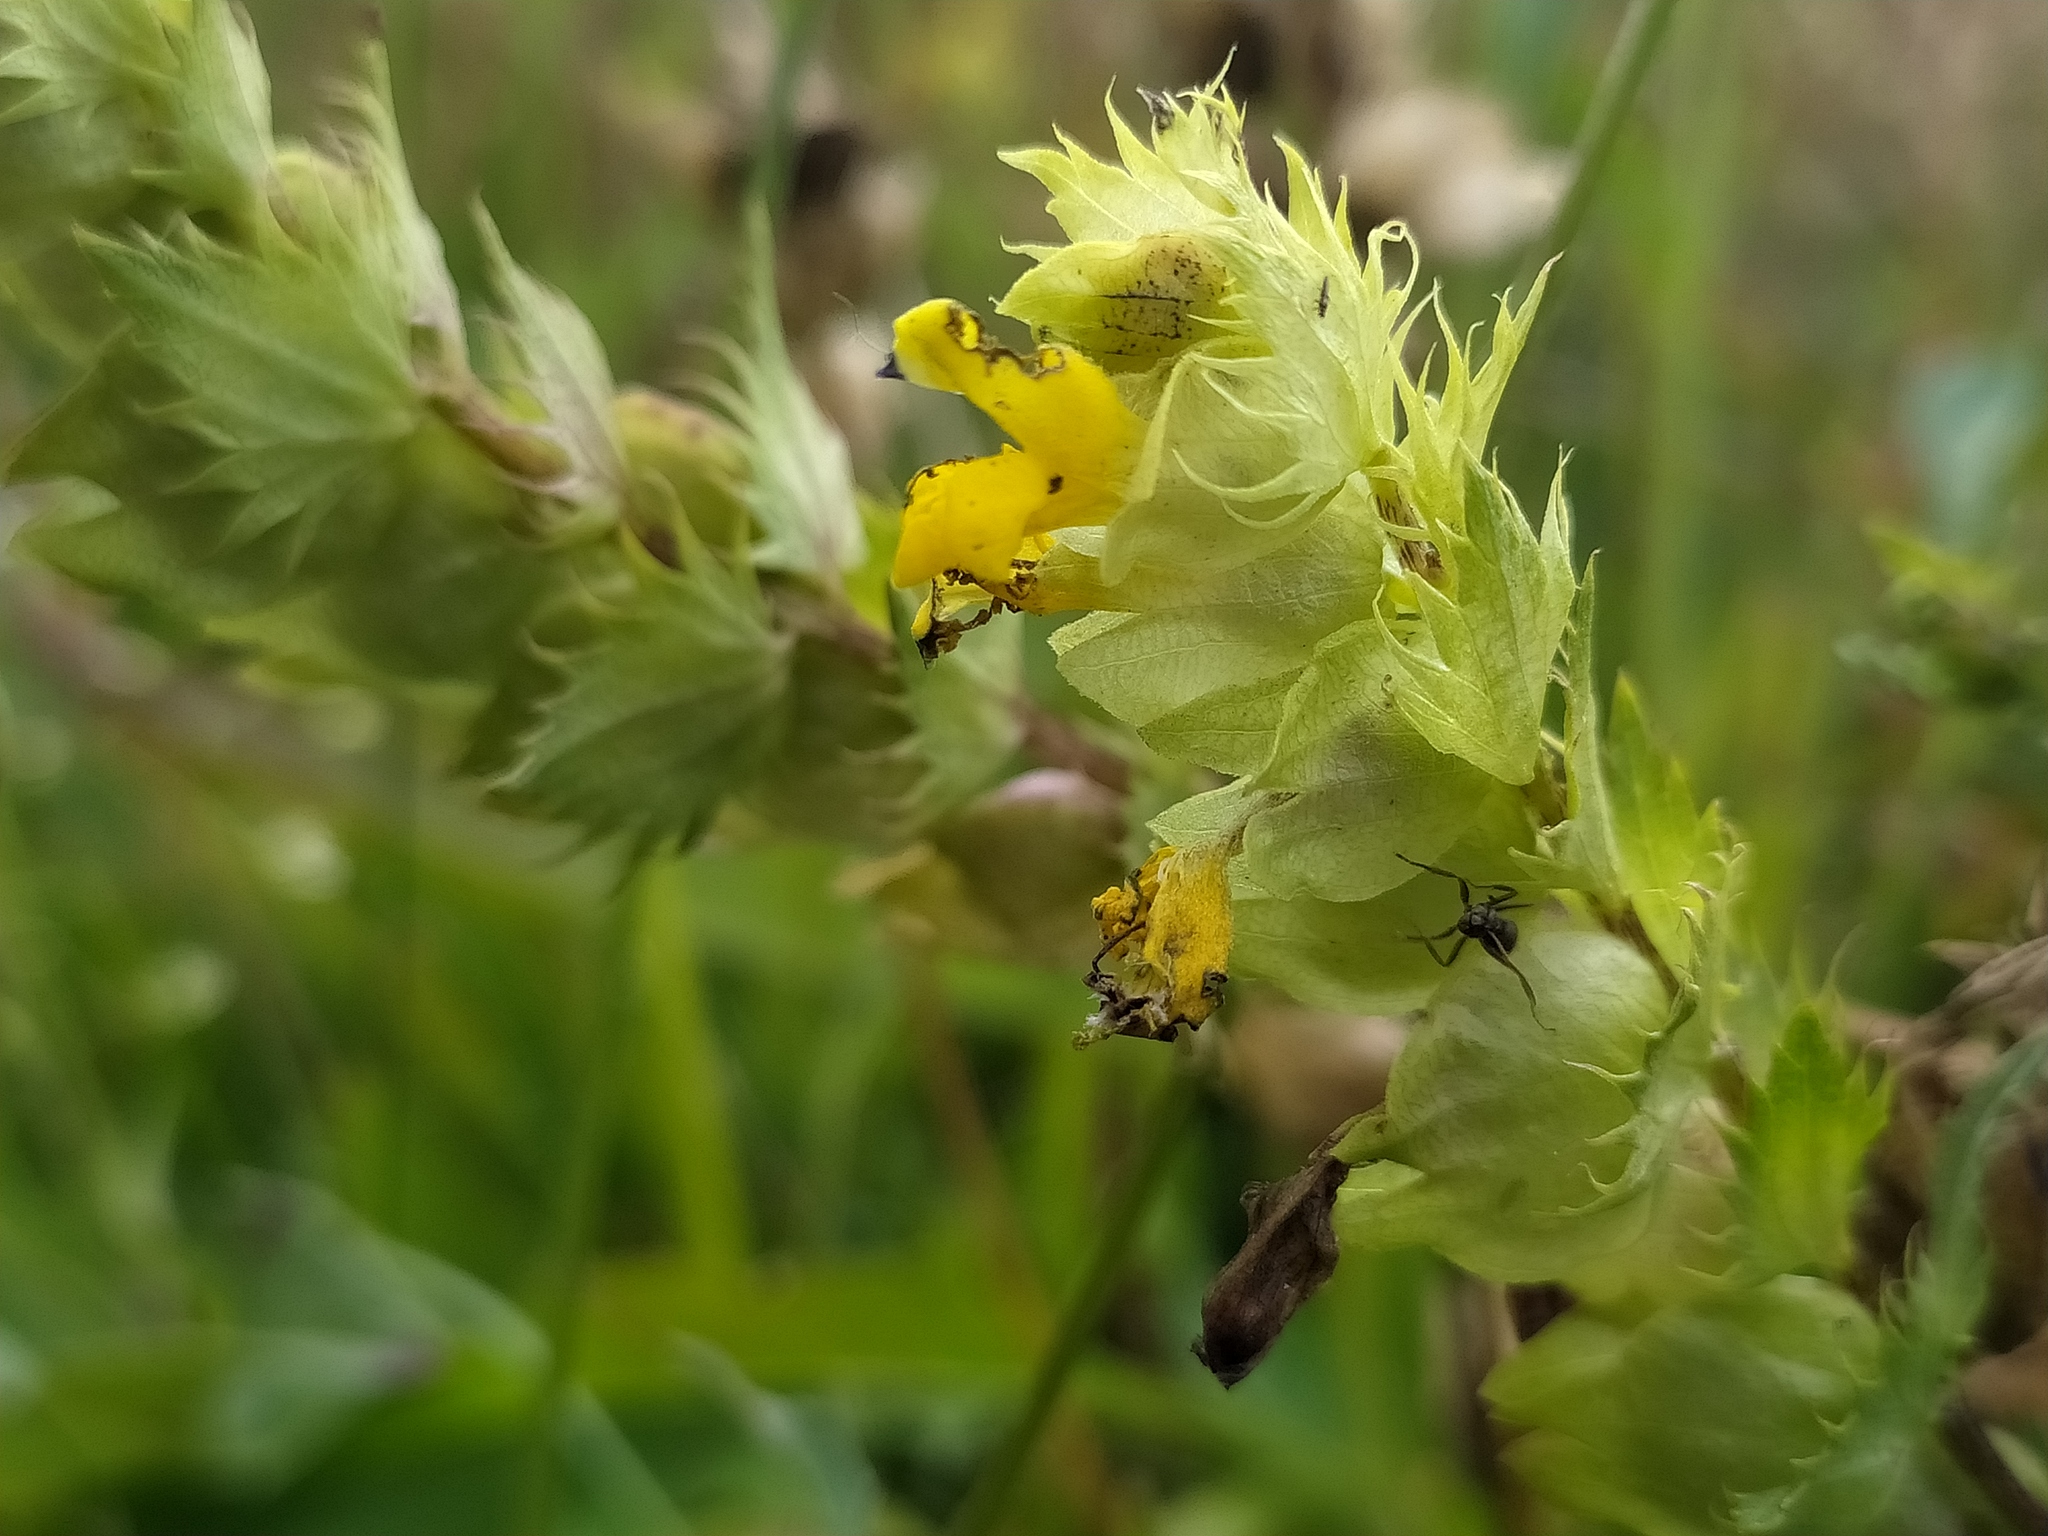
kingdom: Plantae
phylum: Tracheophyta
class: Magnoliopsida
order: Lamiales
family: Orobanchaceae
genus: Rhinanthus
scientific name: Rhinanthus glacialis
